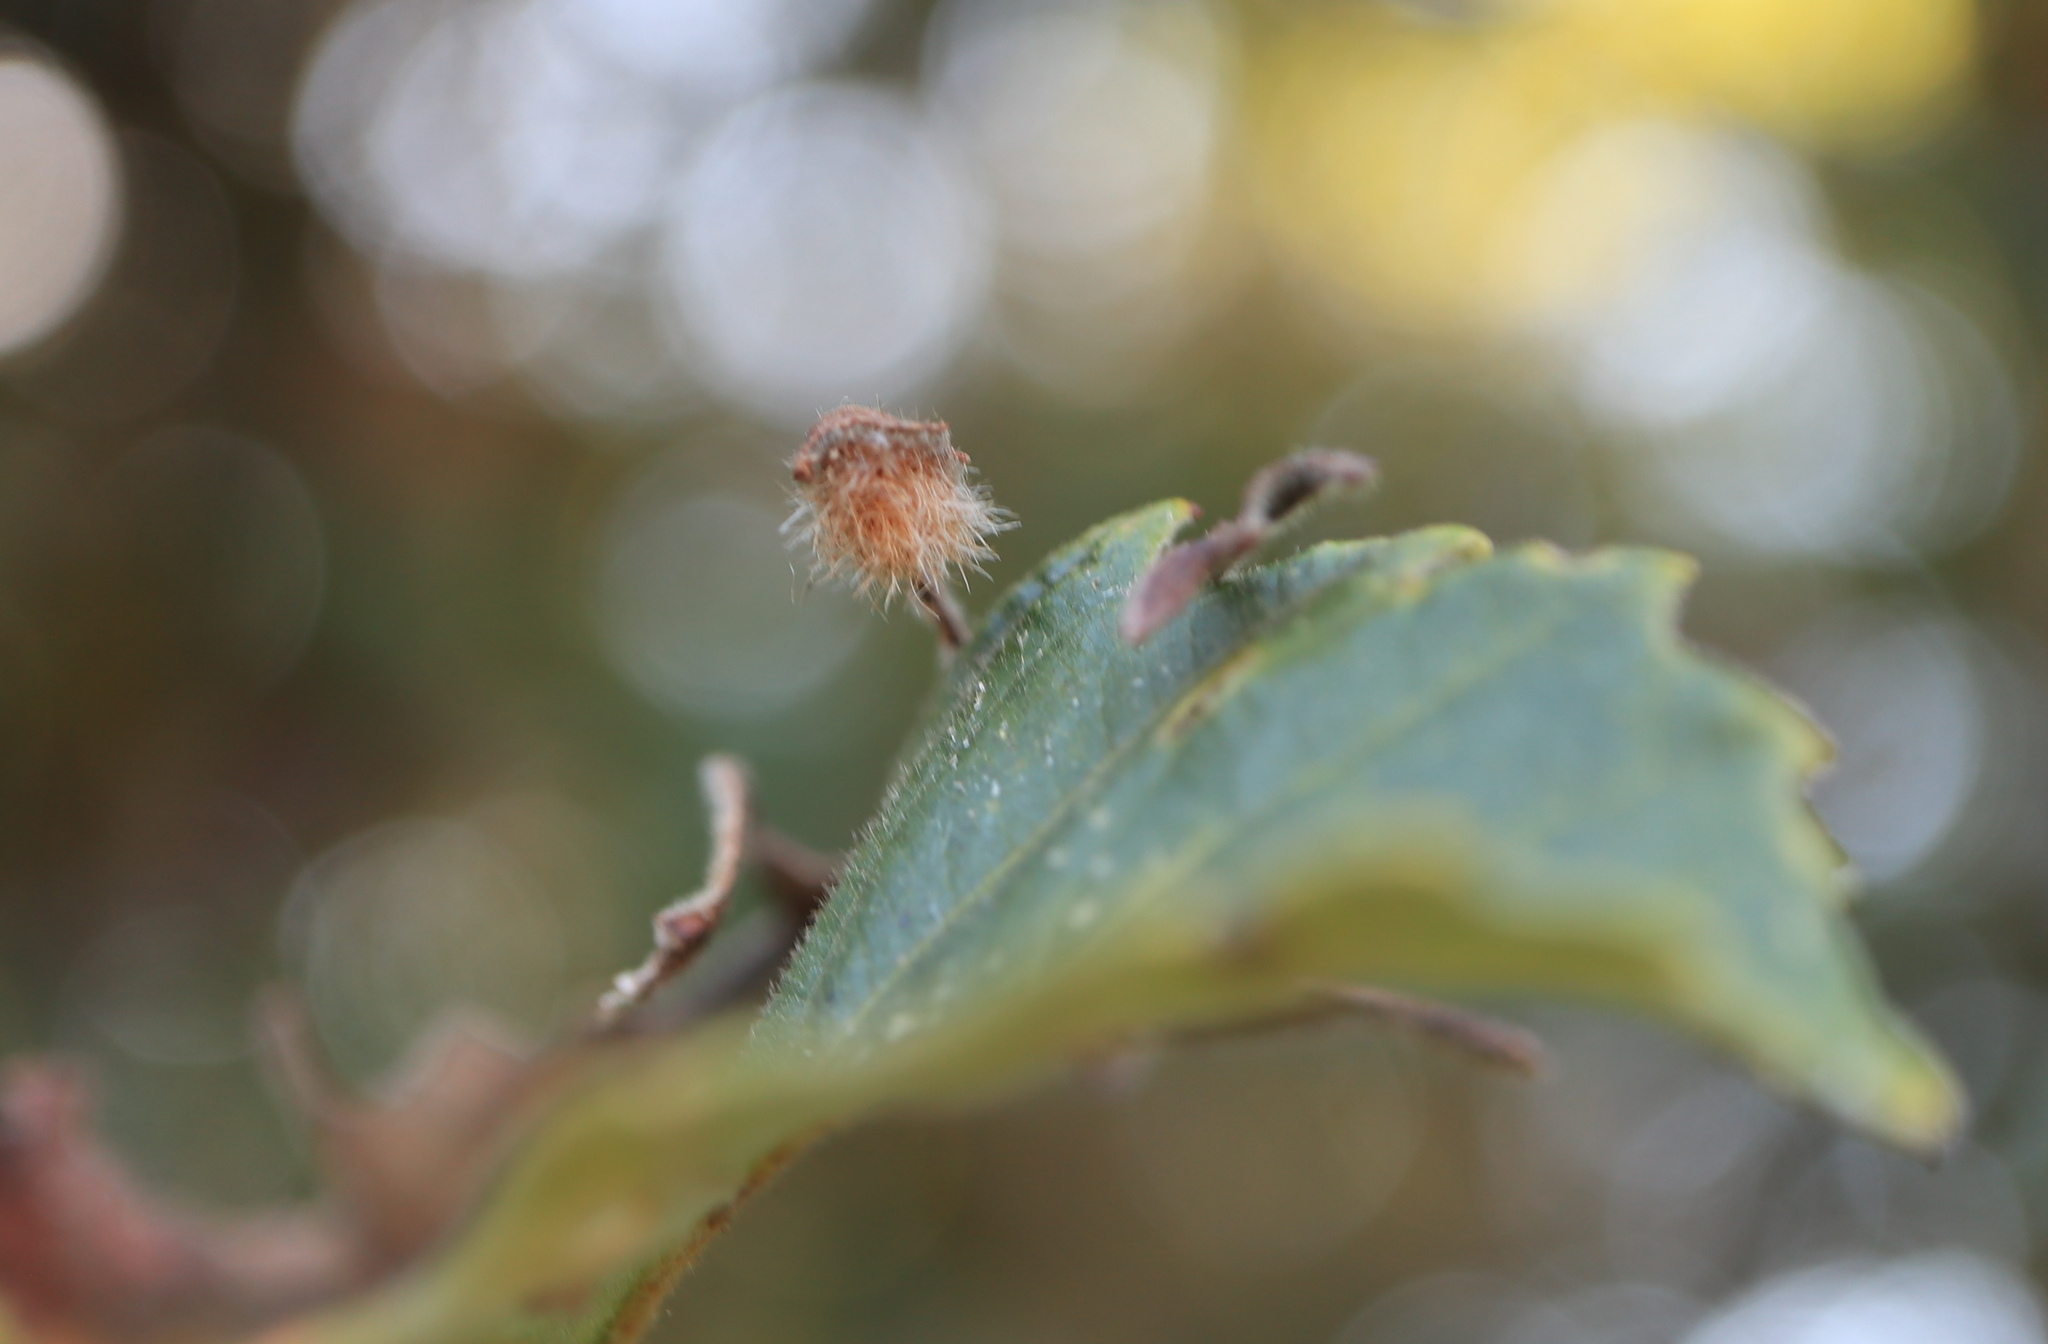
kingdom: Animalia
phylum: Arthropoda
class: Insecta
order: Hymenoptera
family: Cynipidae
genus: Neuroterus
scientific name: Neuroterus floccosus
